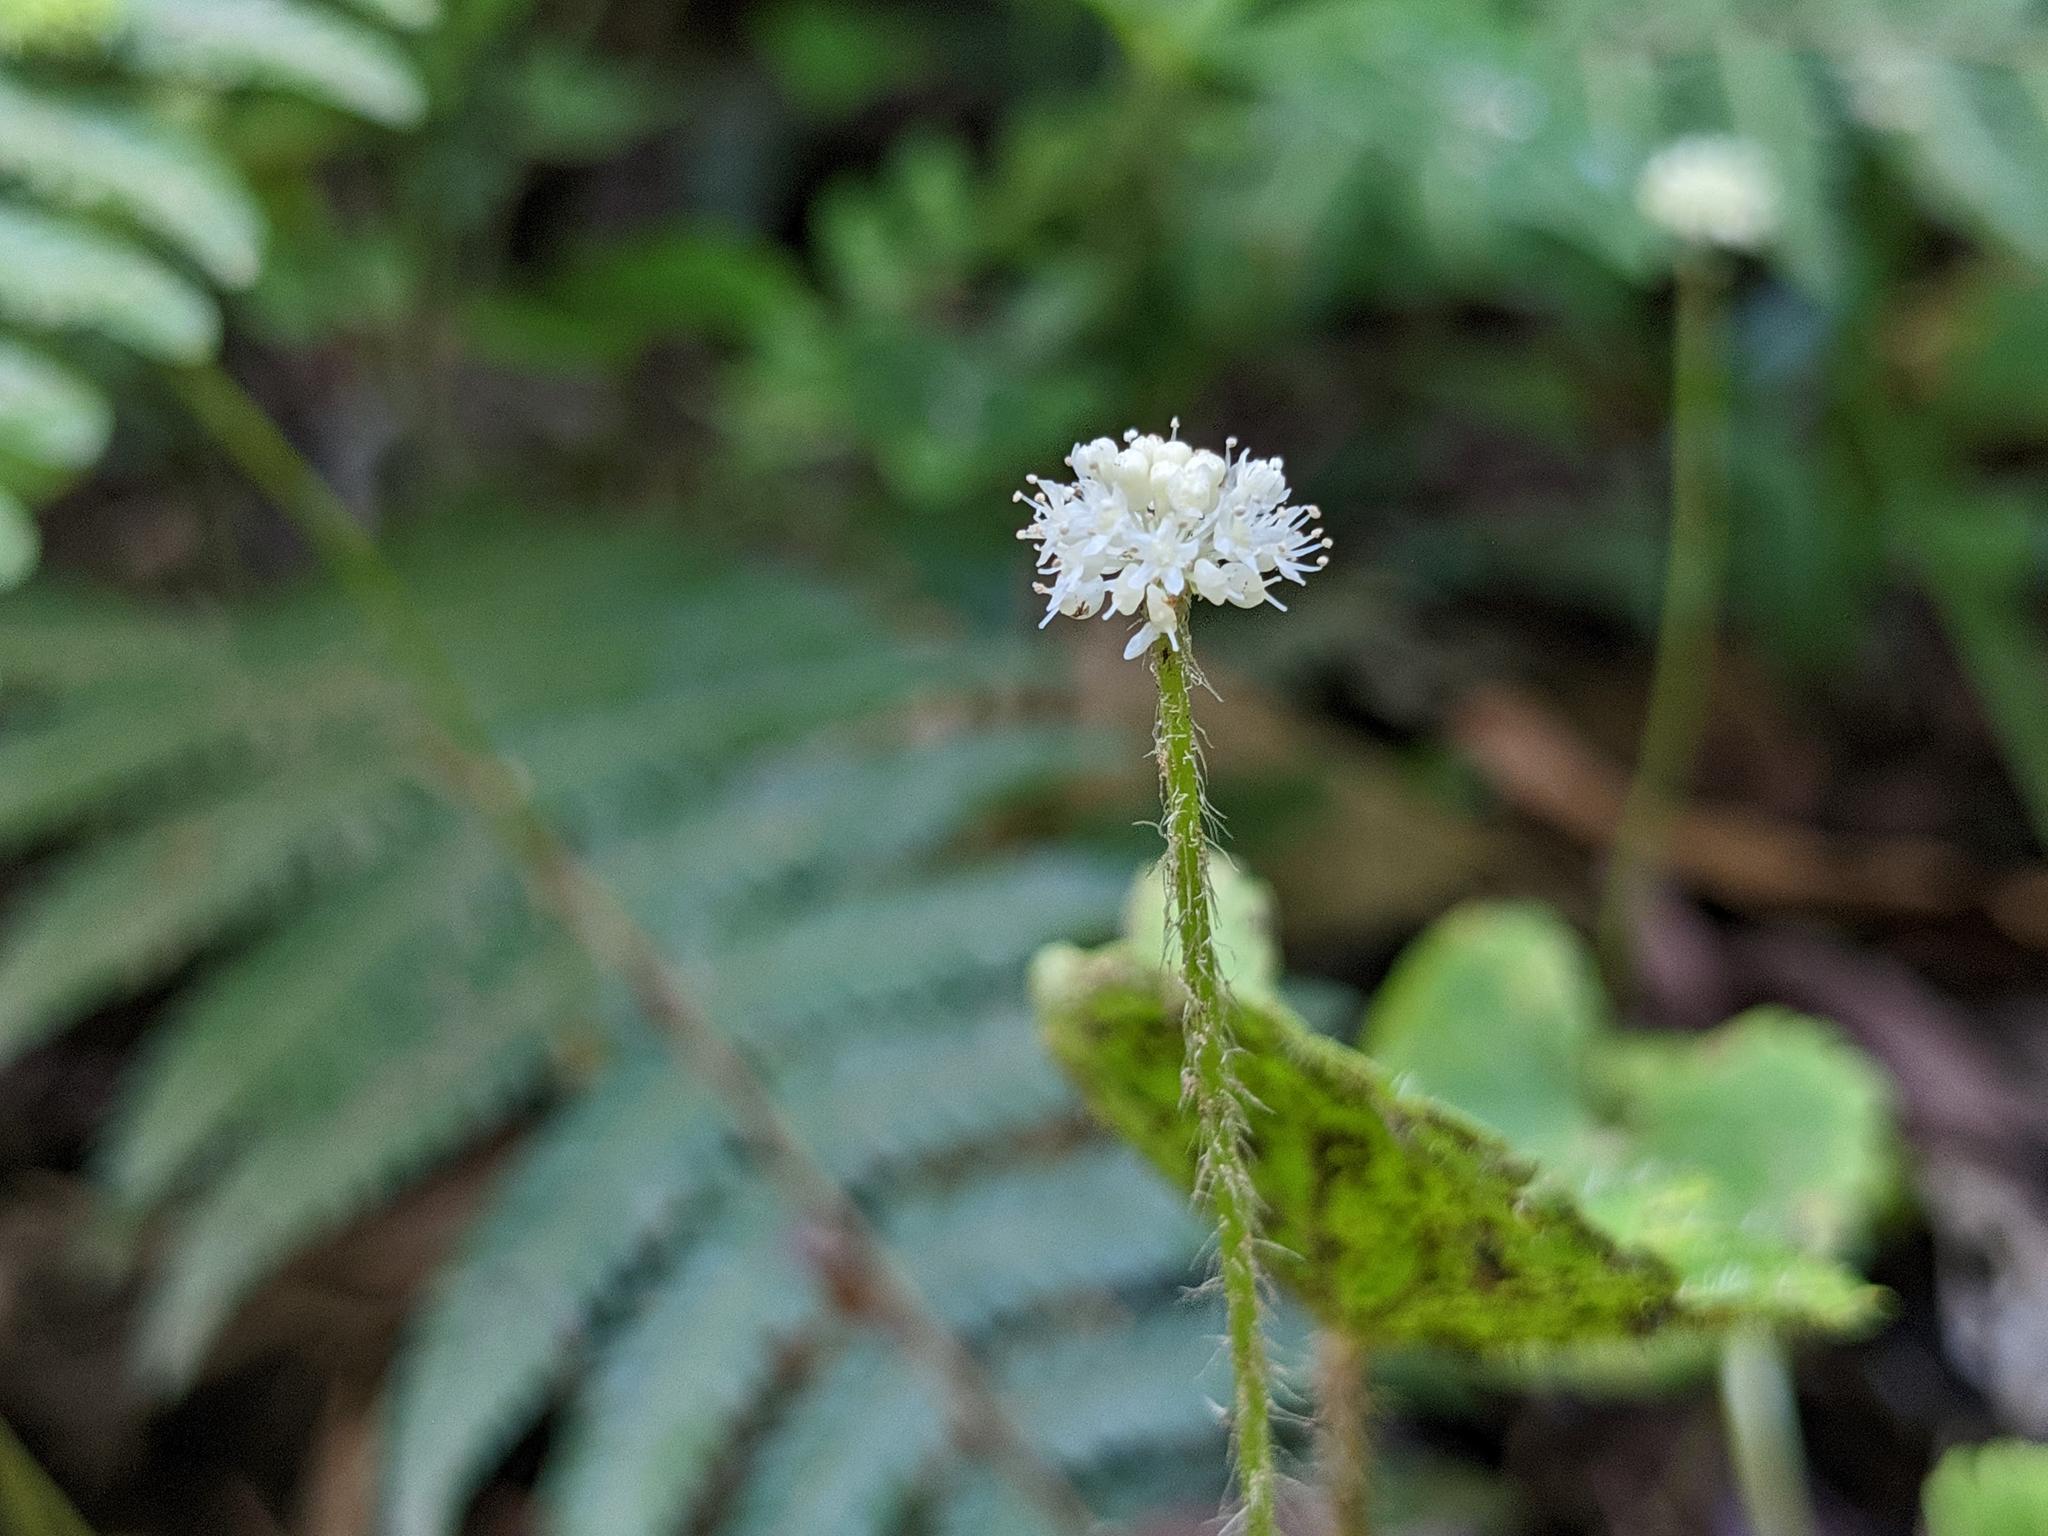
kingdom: Plantae
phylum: Tracheophyta
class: Magnoliopsida
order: Apiales
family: Araliaceae
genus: Hydrocotyle
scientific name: Hydrocotyle leucocephala
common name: Brazilian pennywort
